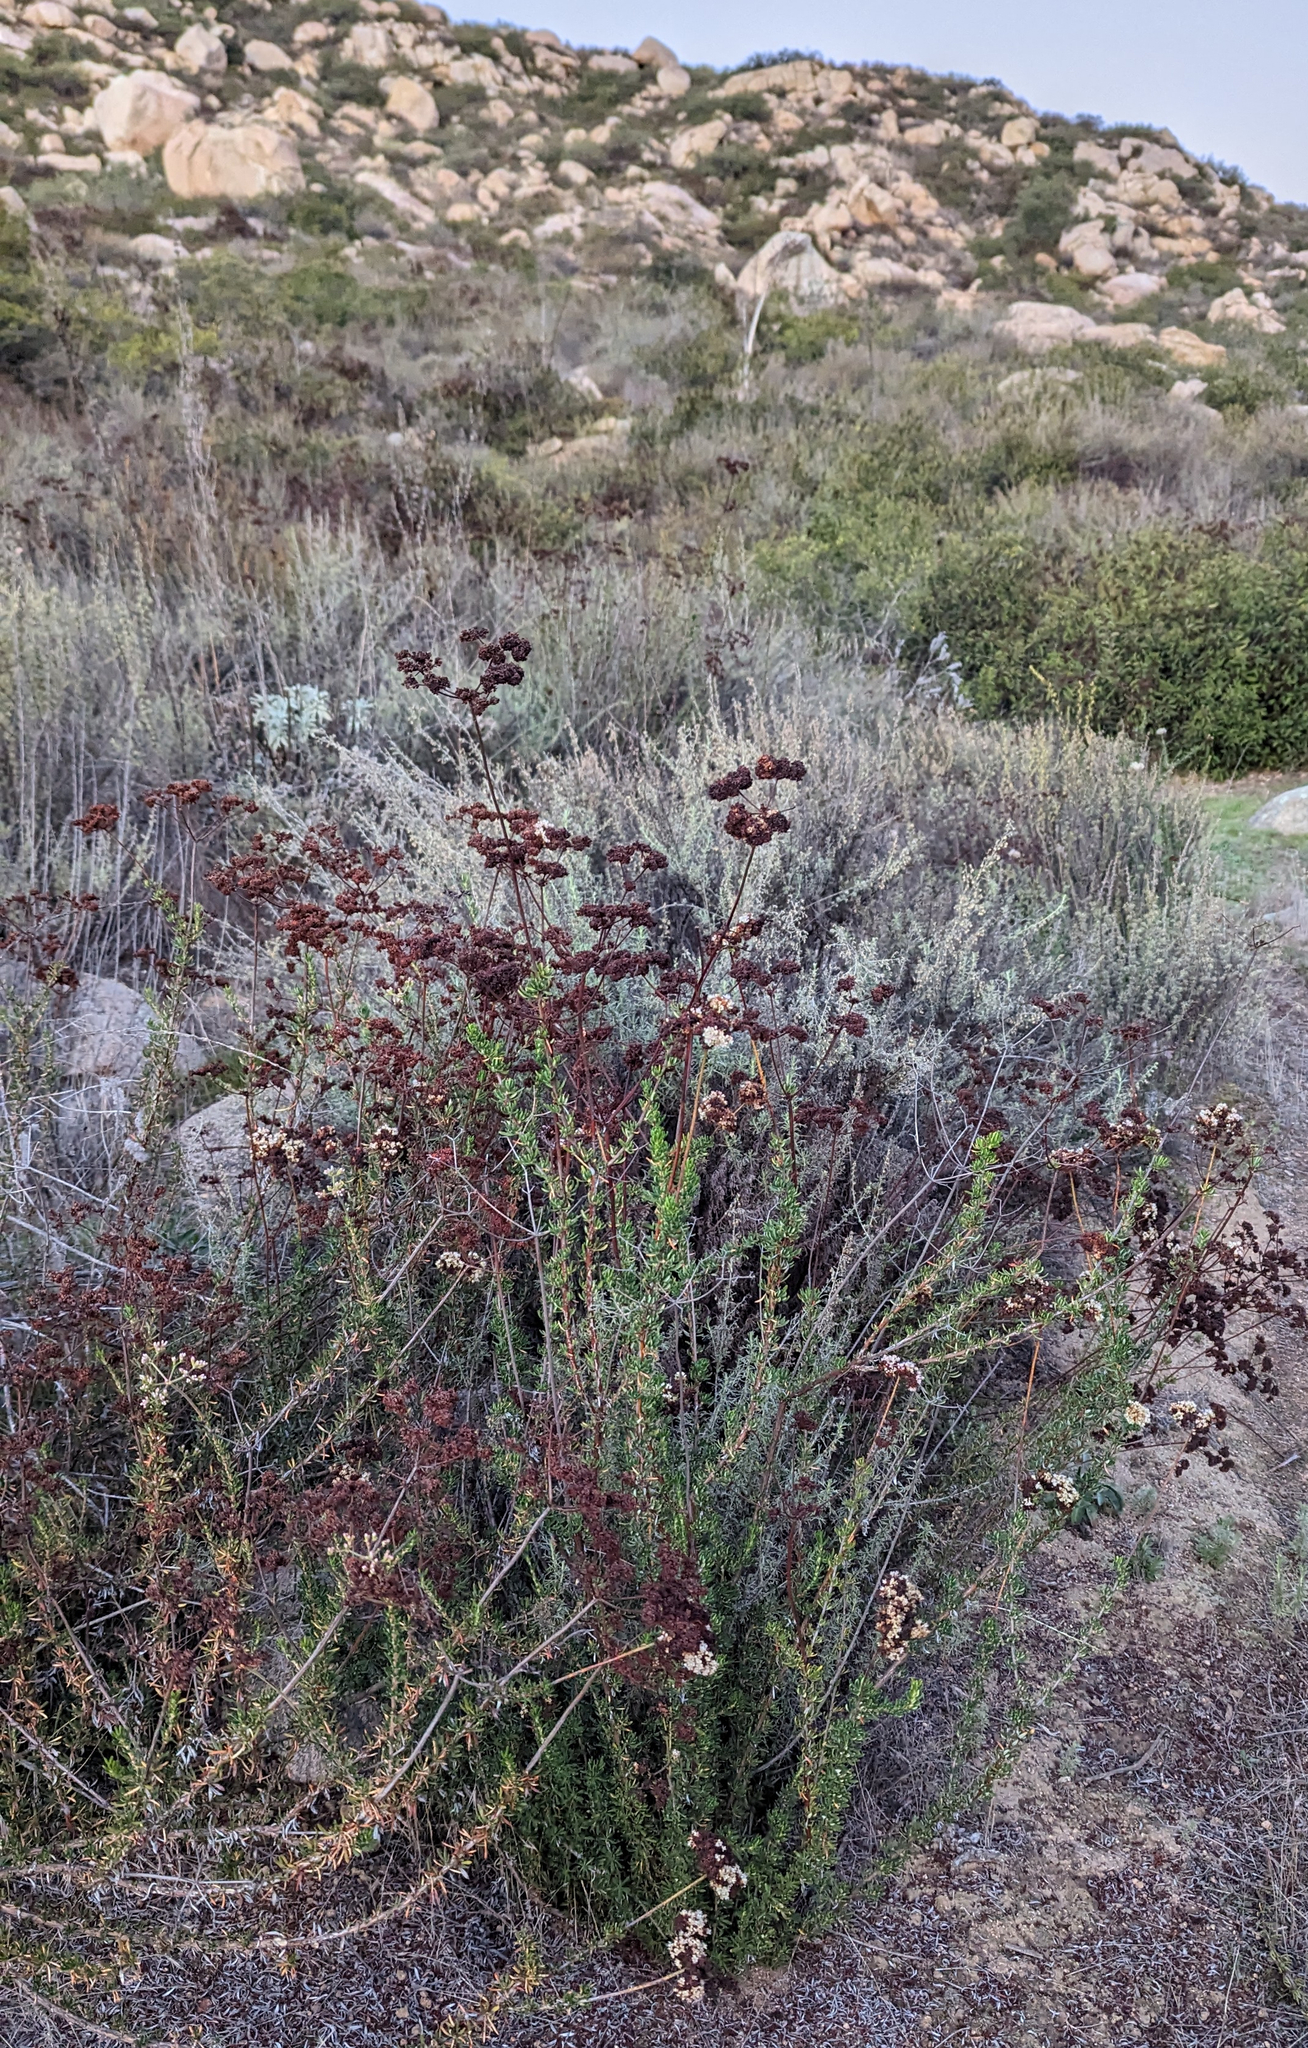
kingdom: Plantae
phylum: Tracheophyta
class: Magnoliopsida
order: Caryophyllales
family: Polygonaceae
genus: Eriogonum
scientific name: Eriogonum fasciculatum
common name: California wild buckwheat
